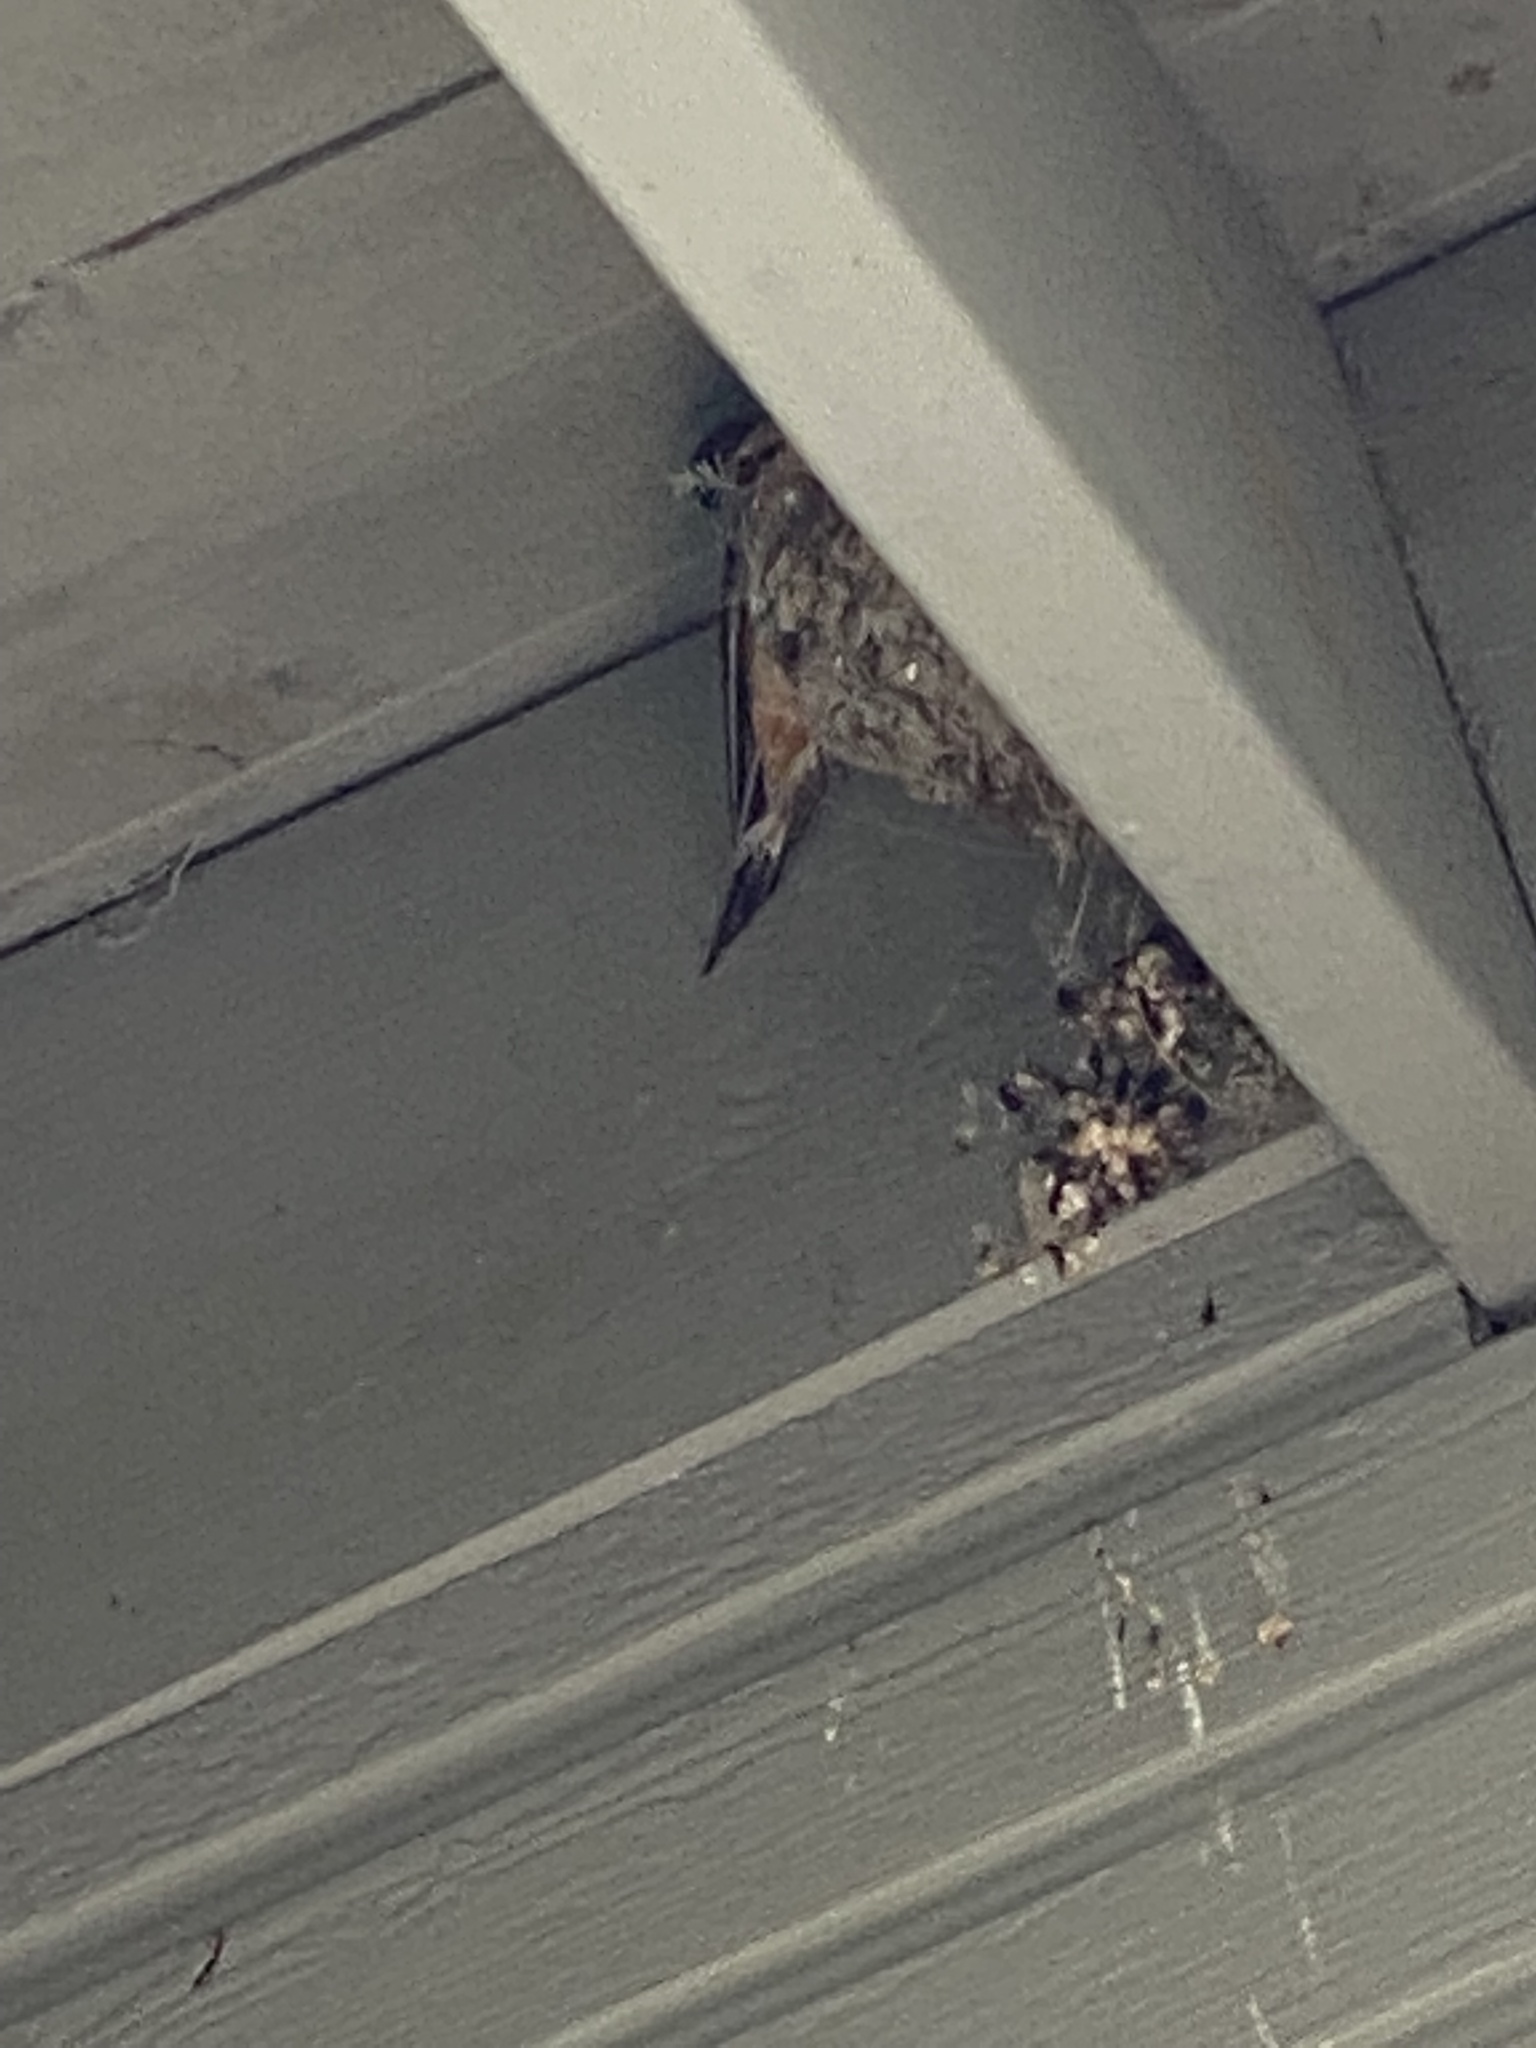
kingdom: Animalia
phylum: Chordata
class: Aves
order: Passeriformes
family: Hirundinidae
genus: Hirundo
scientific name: Hirundo rustica
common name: Barn swallow
